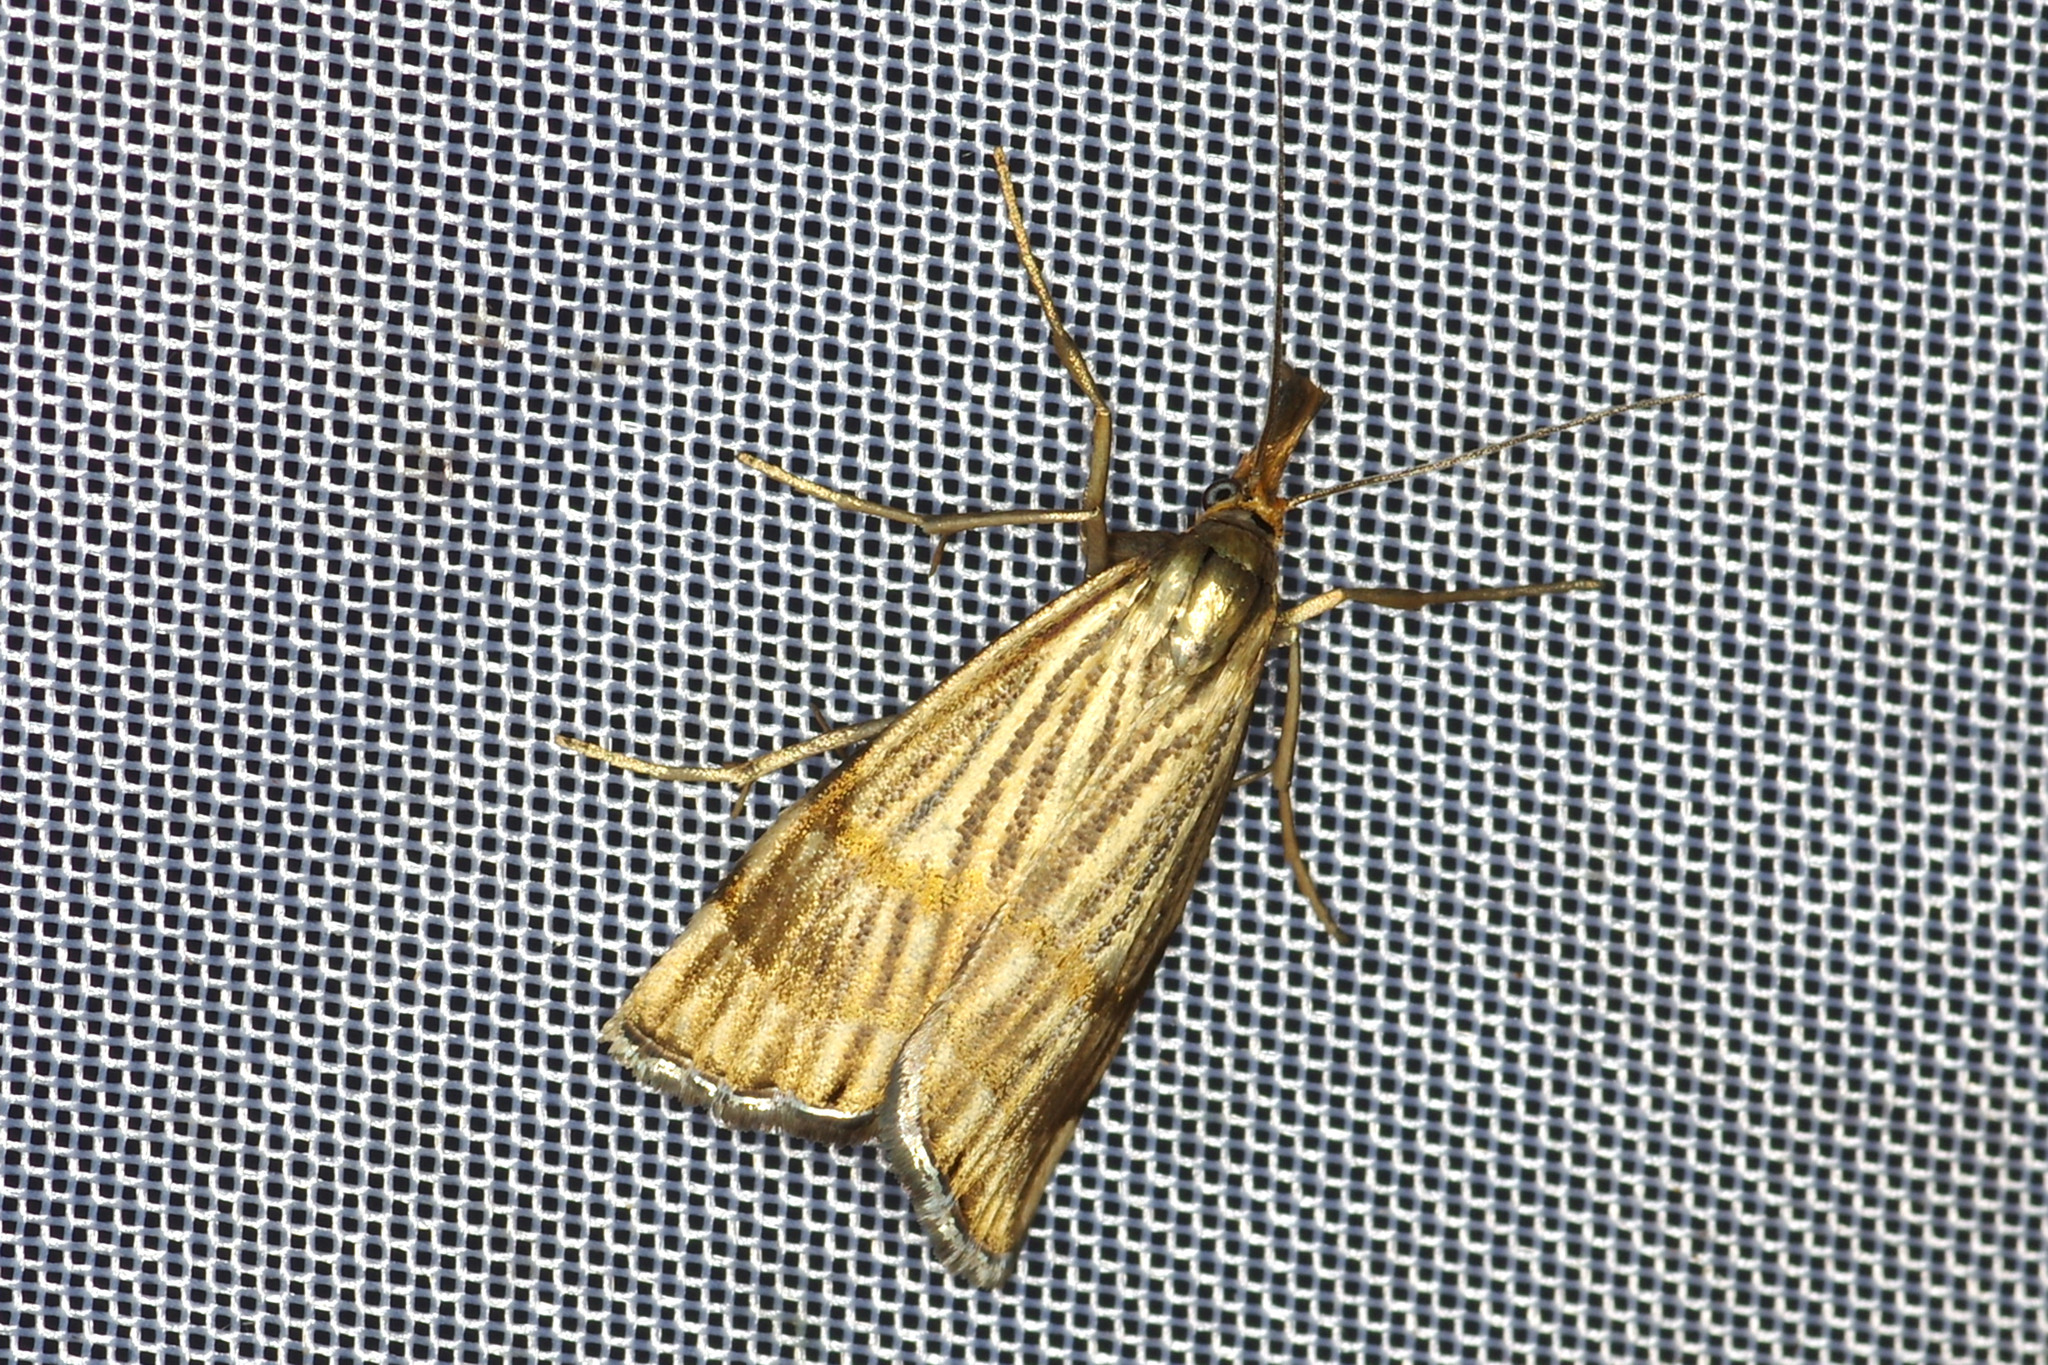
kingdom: Animalia
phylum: Arthropoda
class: Insecta
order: Lepidoptera
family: Crambidae
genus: Chrysocrambus
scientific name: Chrysocrambus linetella
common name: Orange-bar grass-veneer
